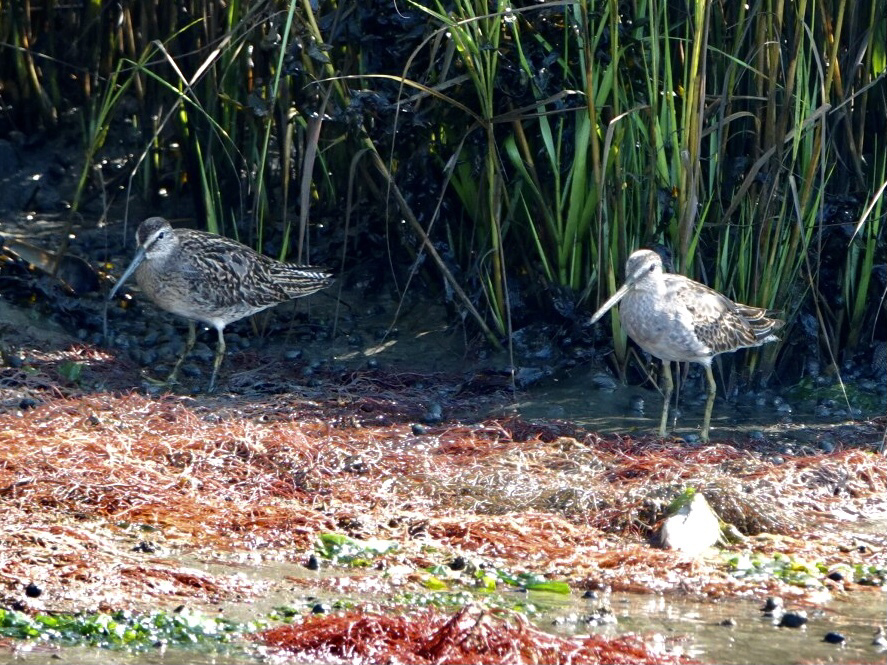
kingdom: Animalia
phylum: Chordata
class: Aves
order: Charadriiformes
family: Scolopacidae
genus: Limnodromus
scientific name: Limnodromus griseus
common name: Short-billed dowitcher
